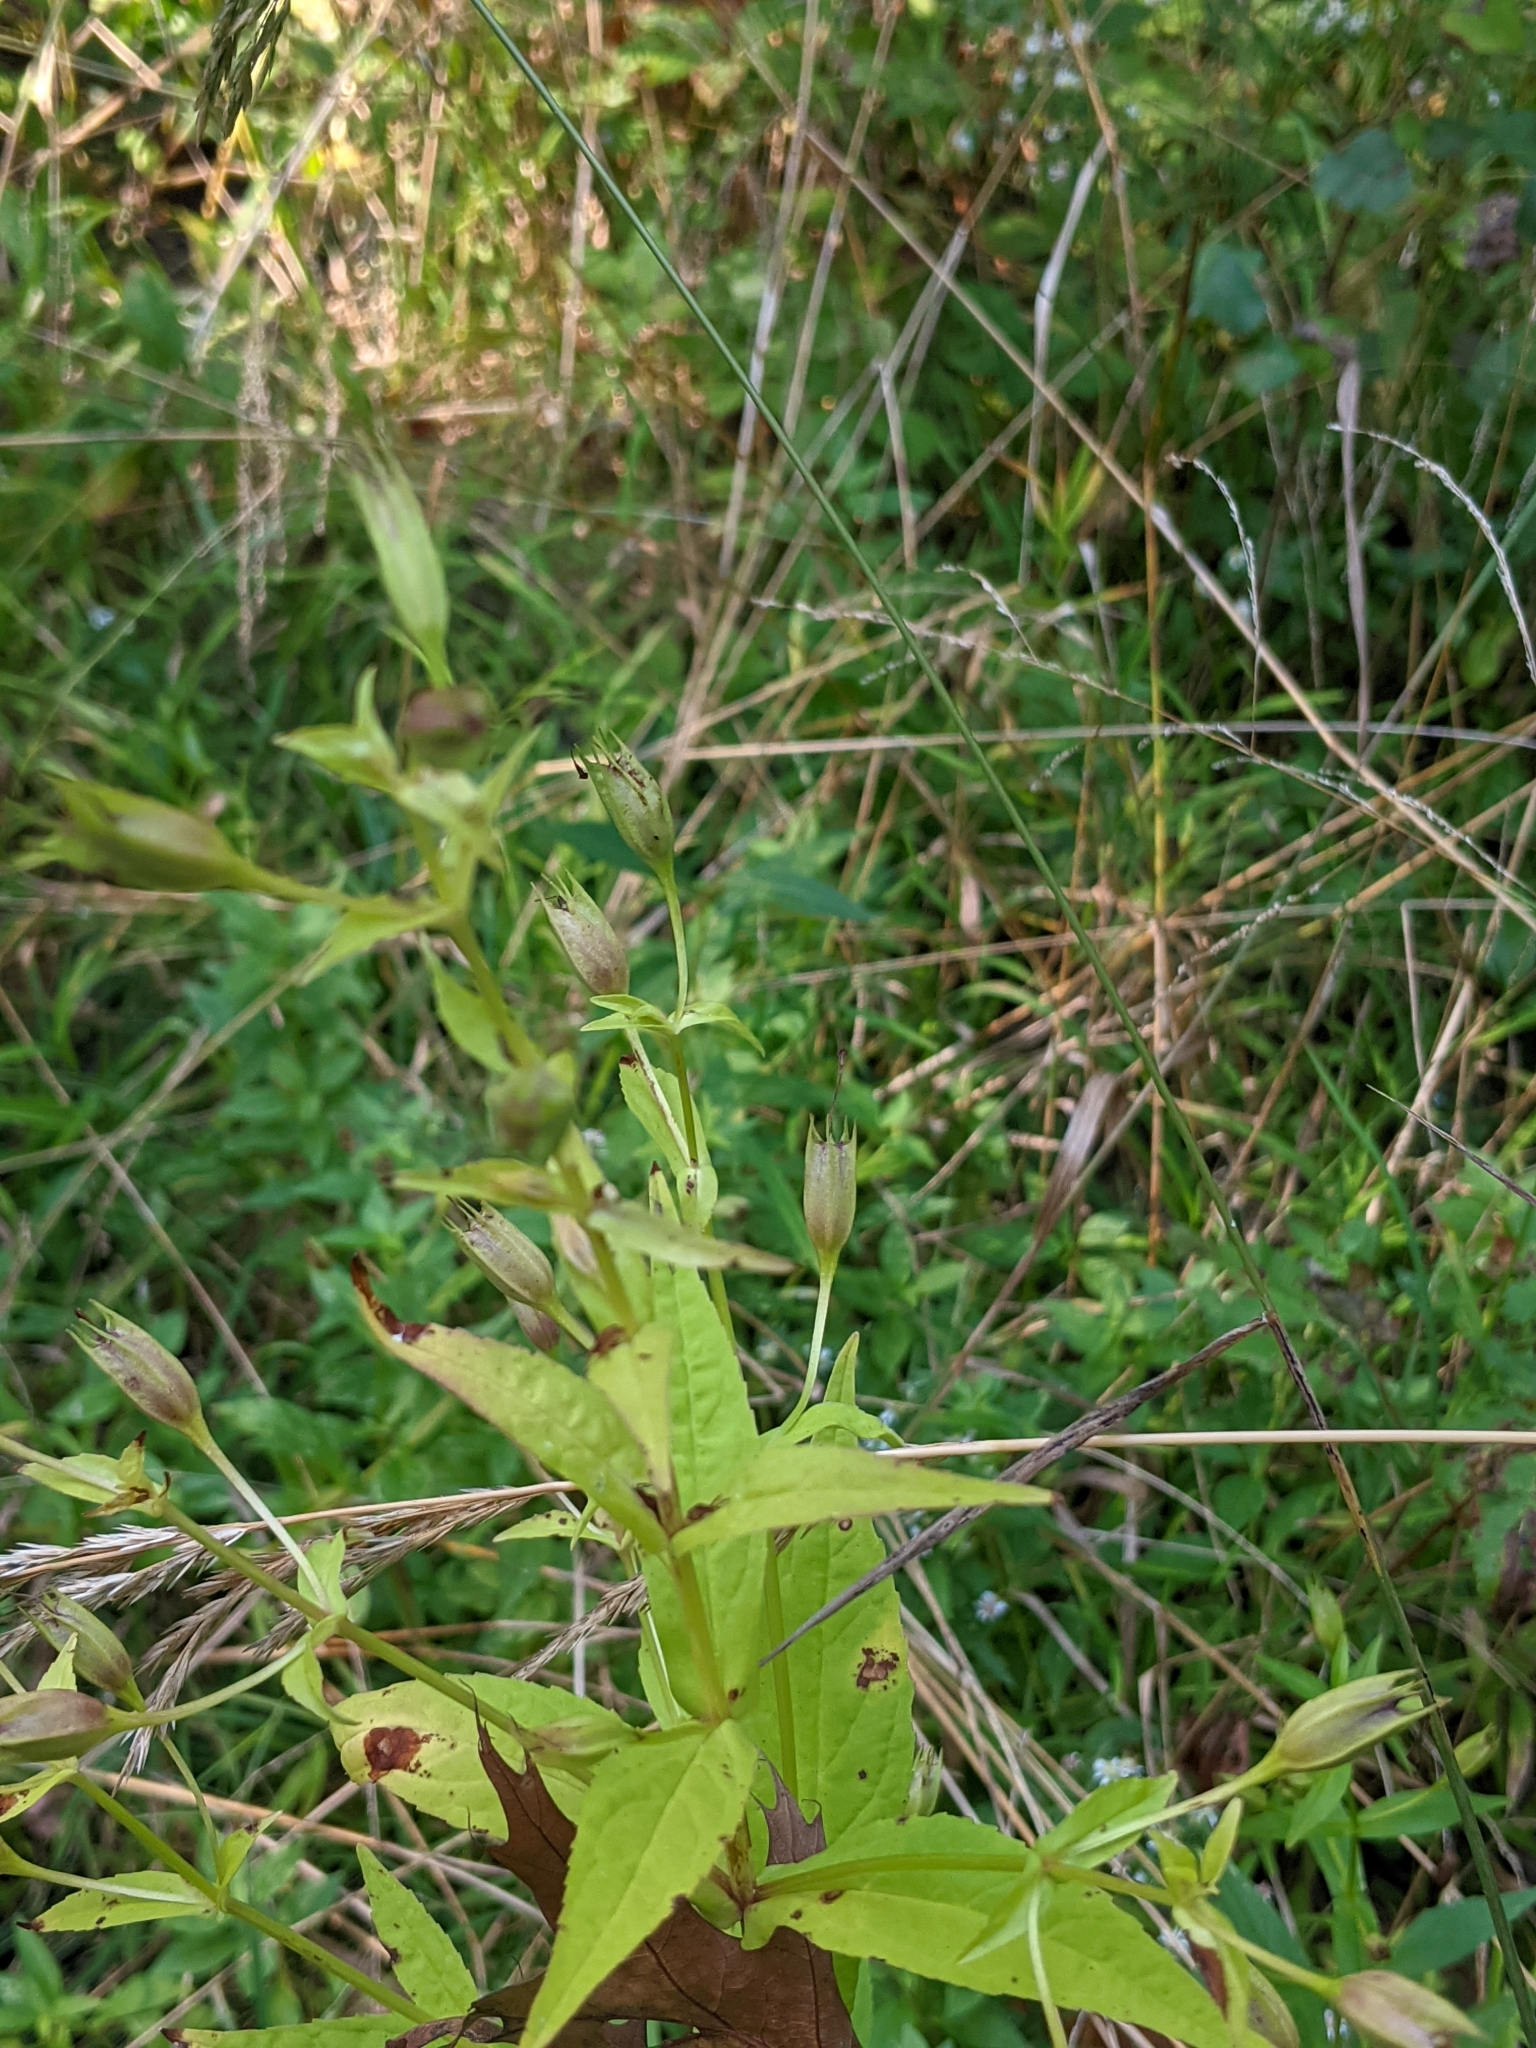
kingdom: Plantae
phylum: Tracheophyta
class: Magnoliopsida
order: Lamiales
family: Phrymaceae
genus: Mimulus
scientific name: Mimulus ringens
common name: Allegheny monkeyflower
